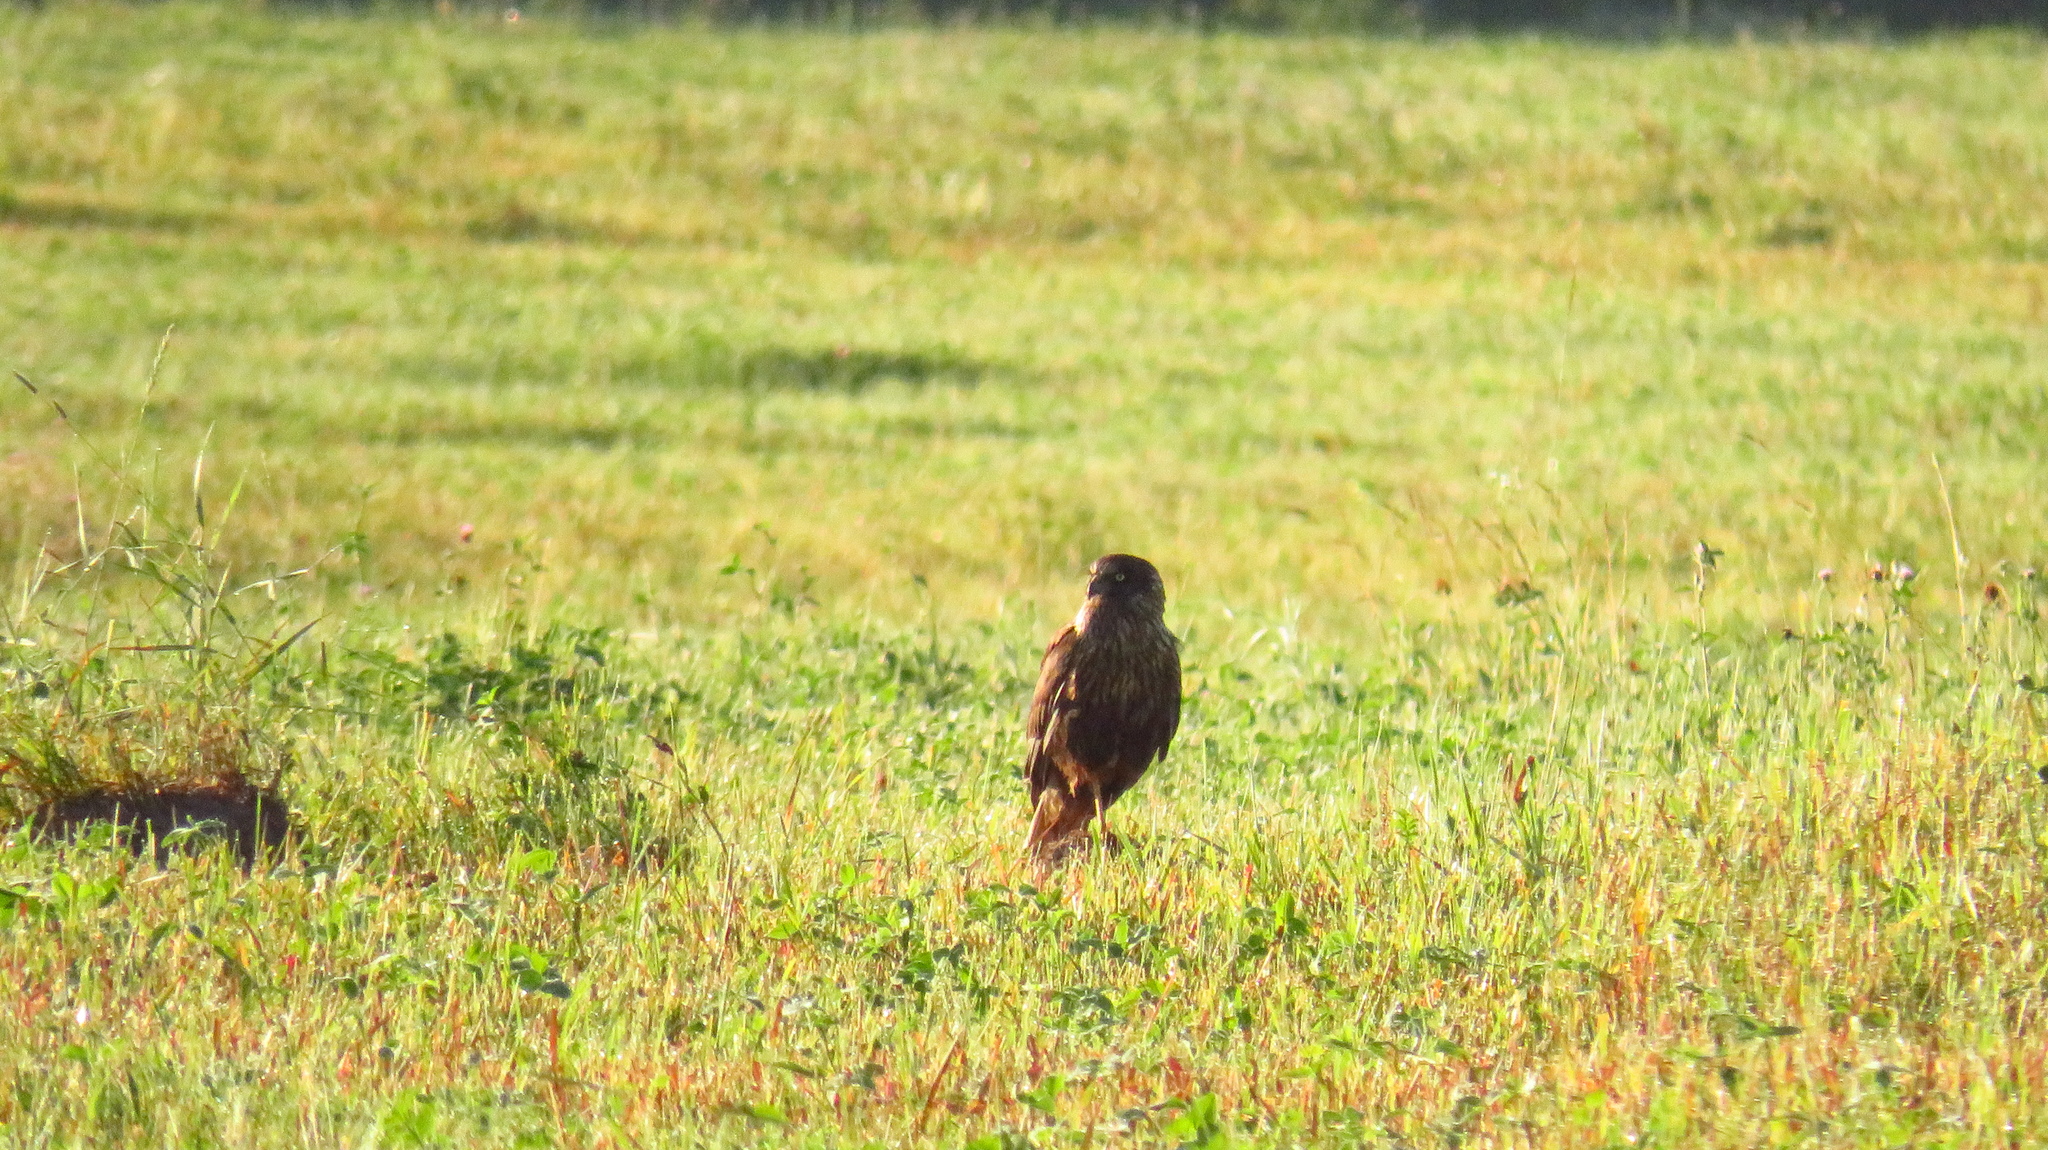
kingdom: Animalia
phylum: Chordata
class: Aves
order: Accipitriformes
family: Accipitridae
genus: Circus
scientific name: Circus aeruginosus
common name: Western marsh harrier
